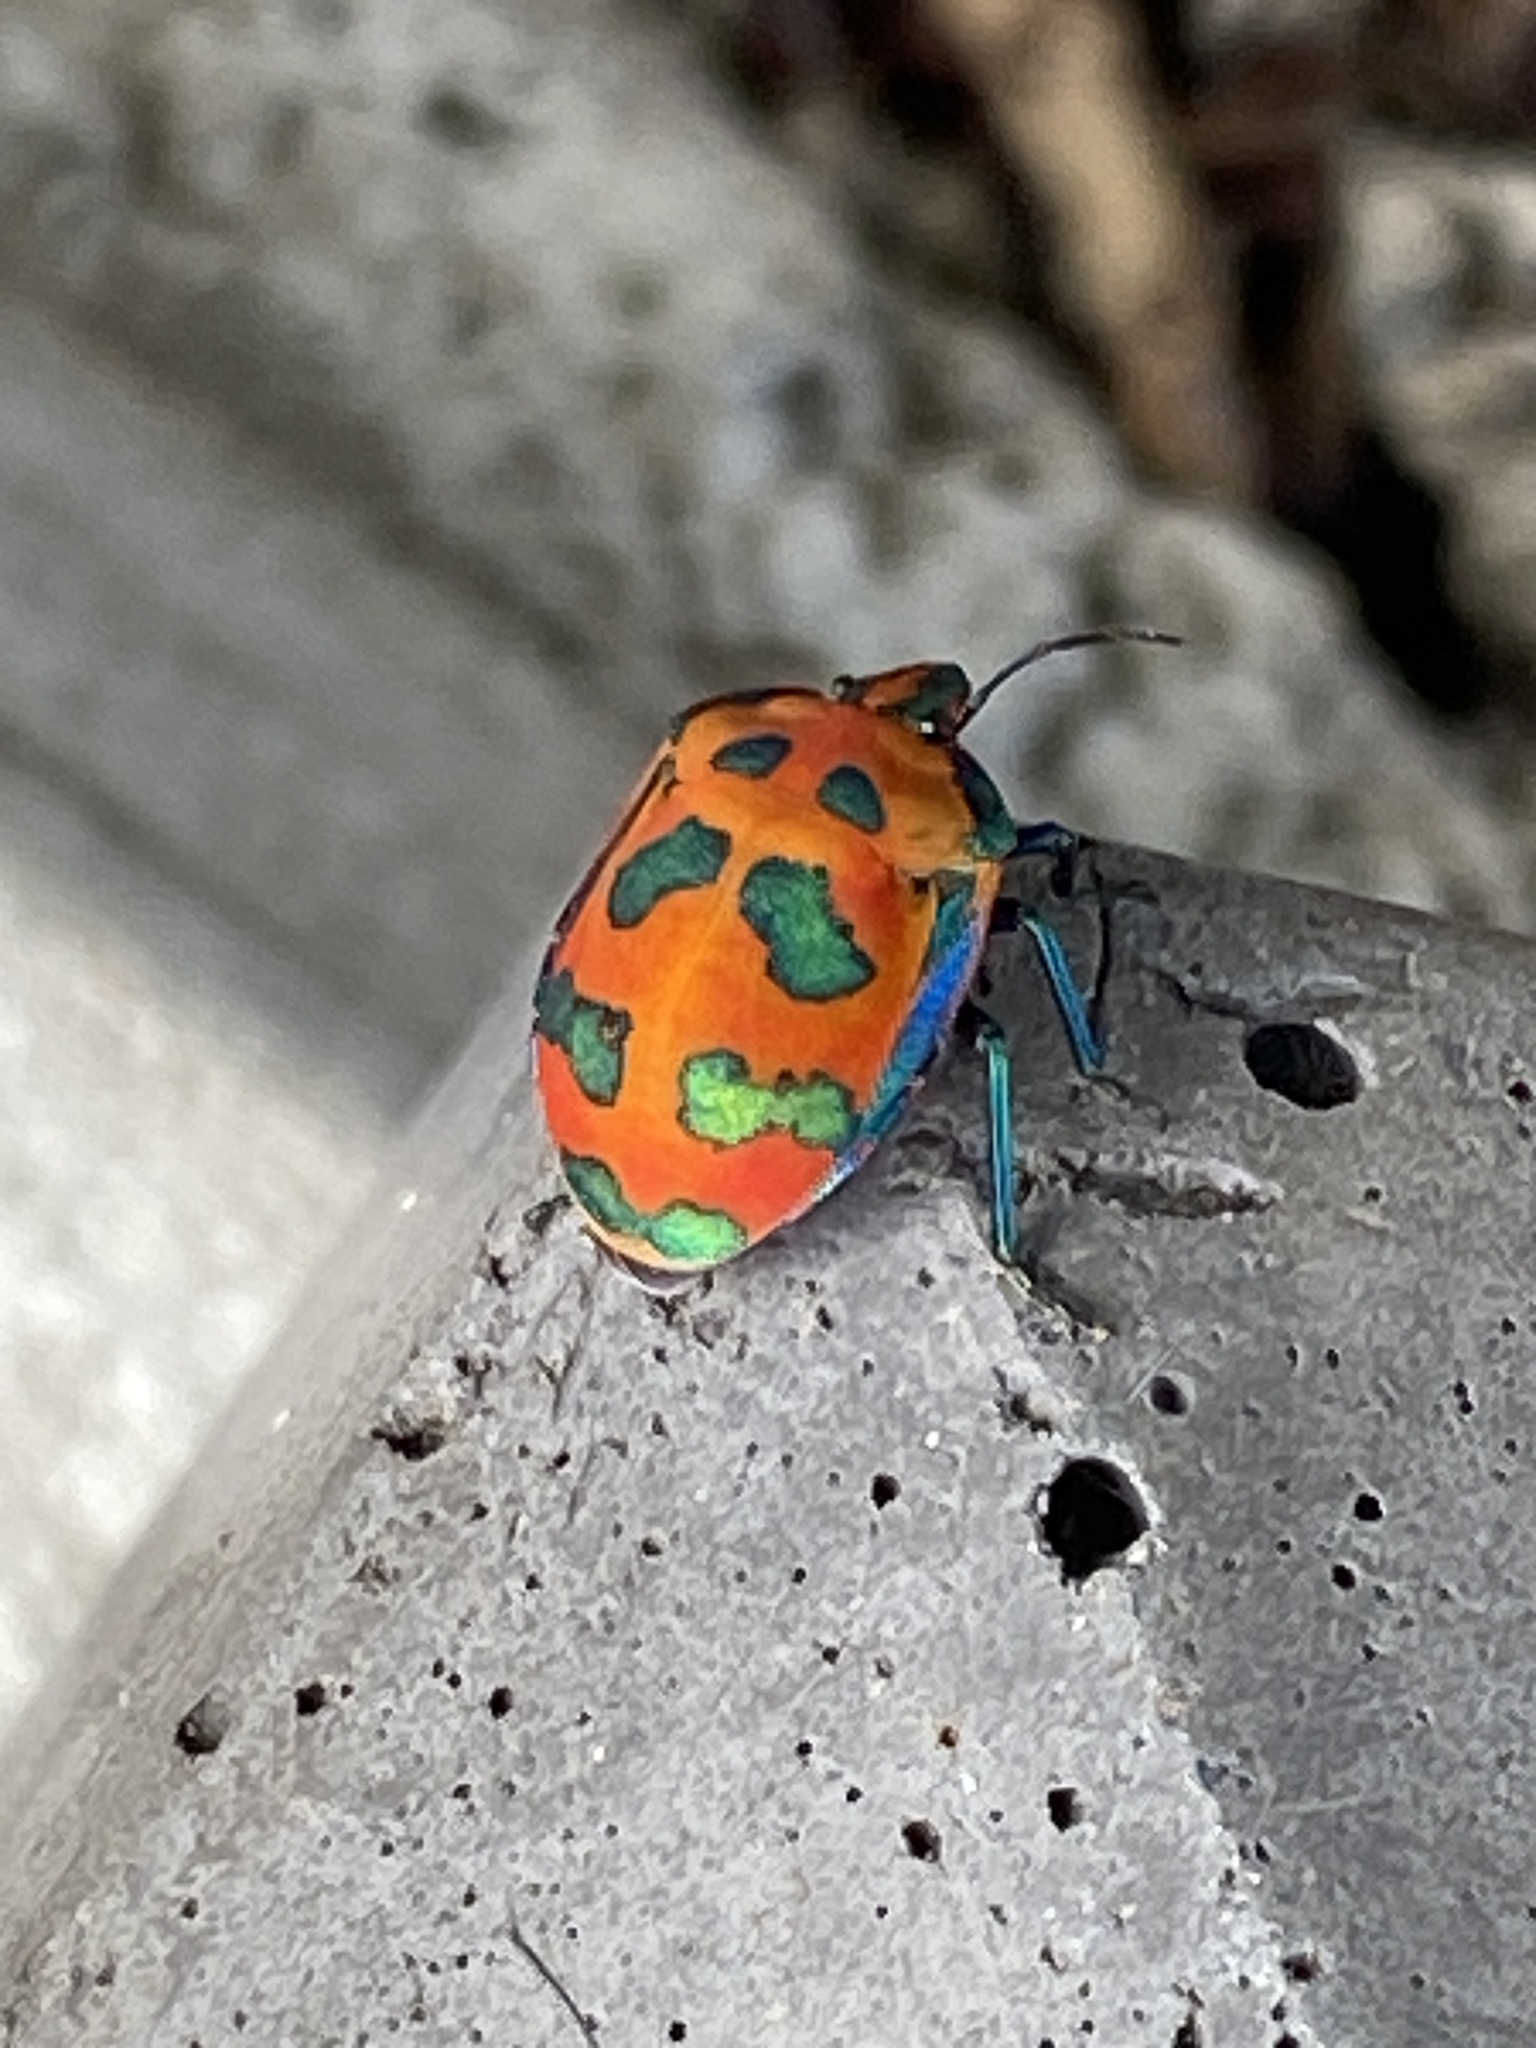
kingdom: Animalia
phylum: Arthropoda
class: Insecta
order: Hemiptera
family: Scutelleridae
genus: Tectocoris
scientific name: Tectocoris diophthalmus
